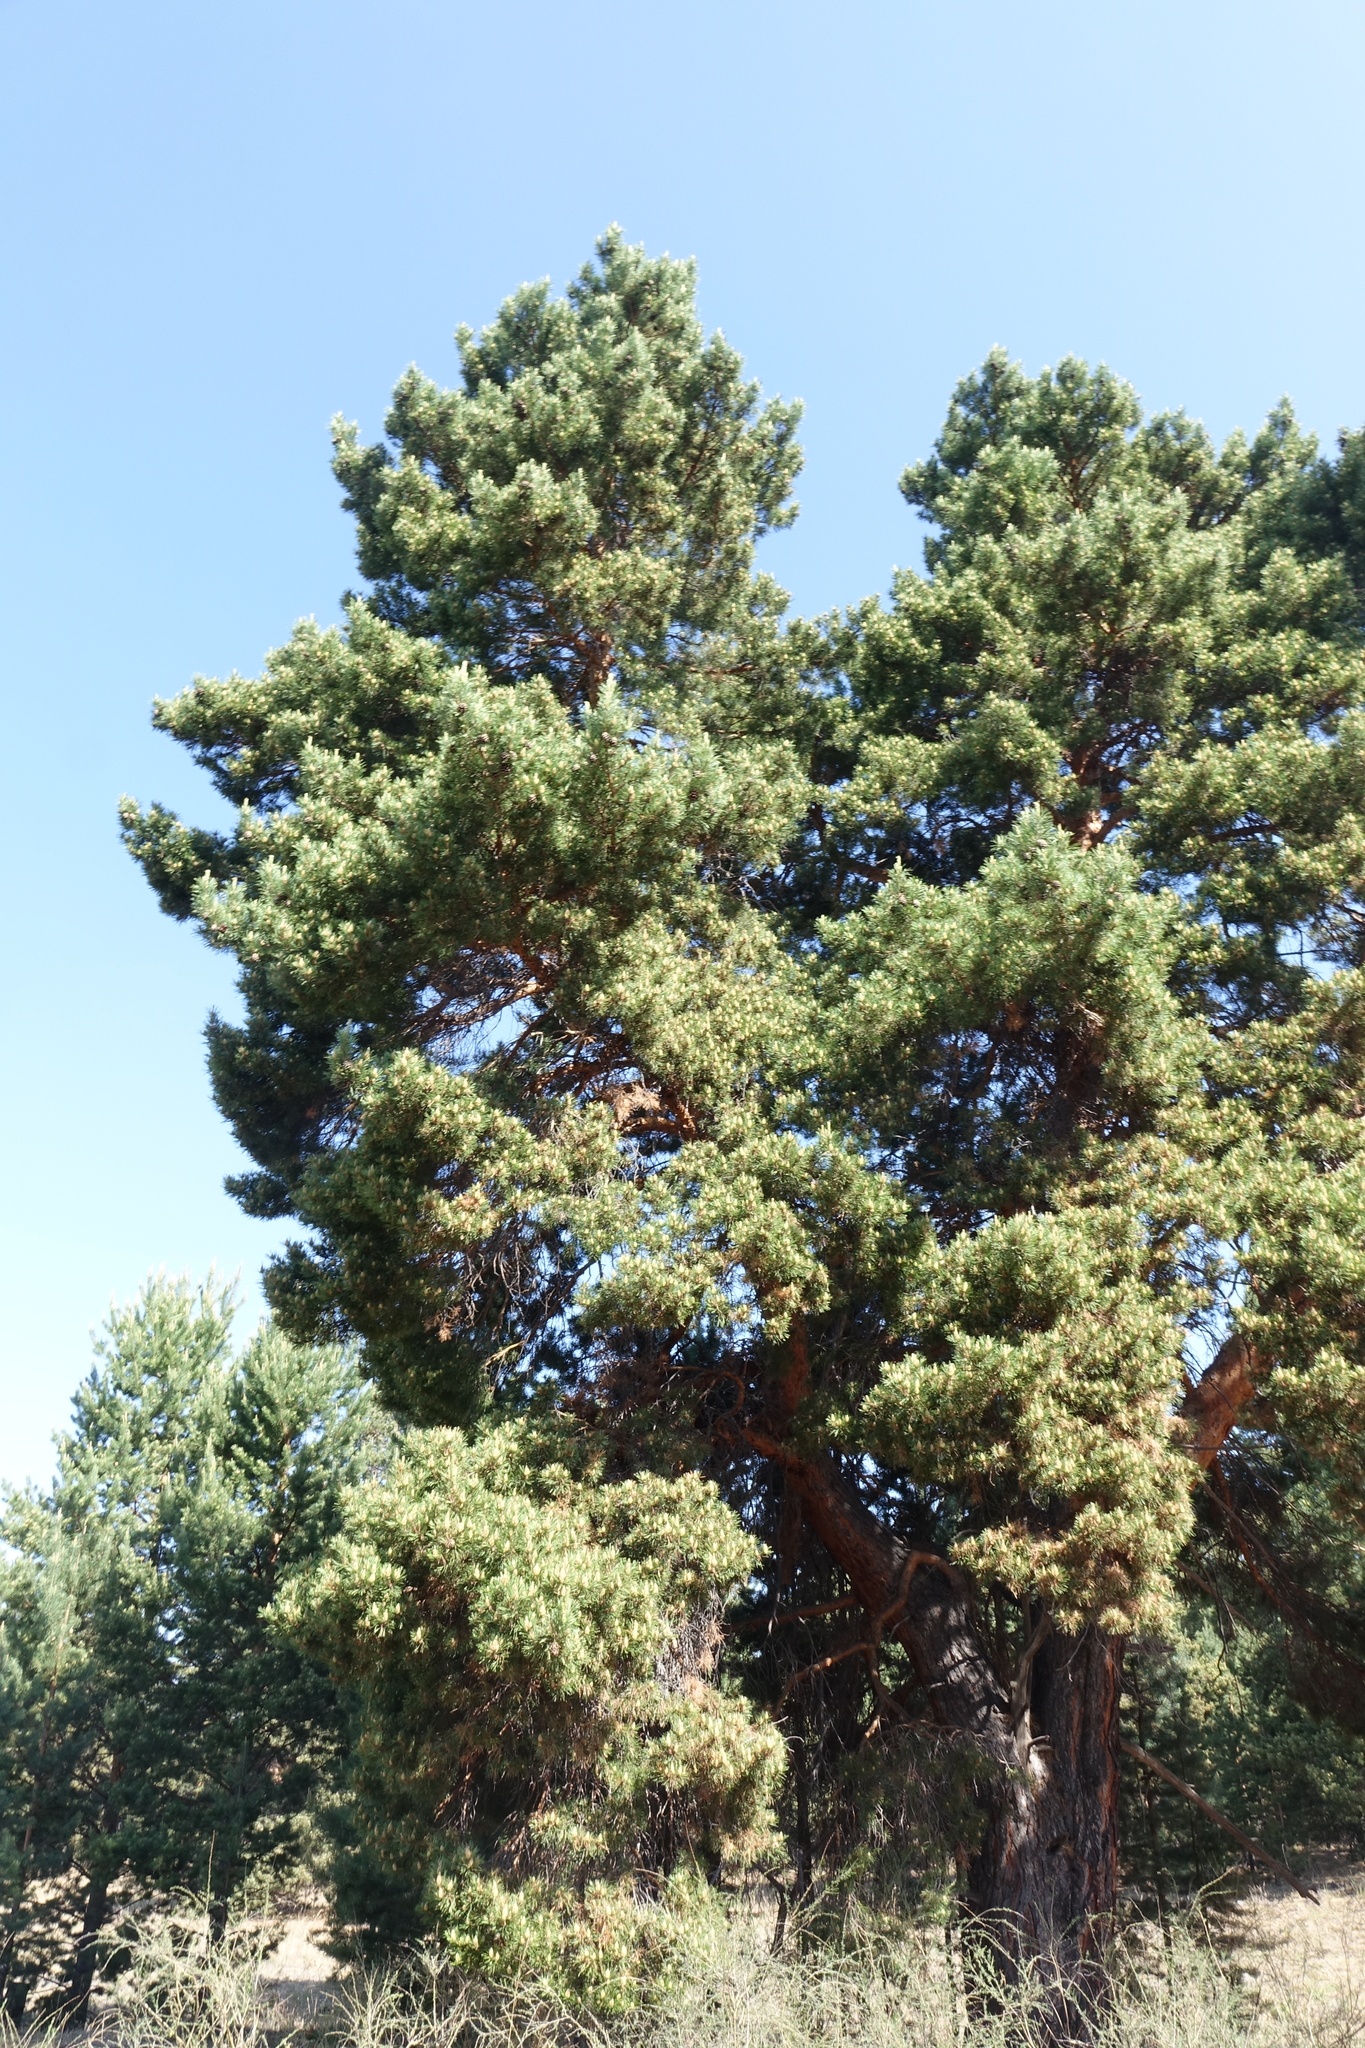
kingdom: Plantae
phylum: Tracheophyta
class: Pinopsida
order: Pinales
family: Pinaceae
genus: Pinus
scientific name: Pinus sylvestris
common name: Scots pine
